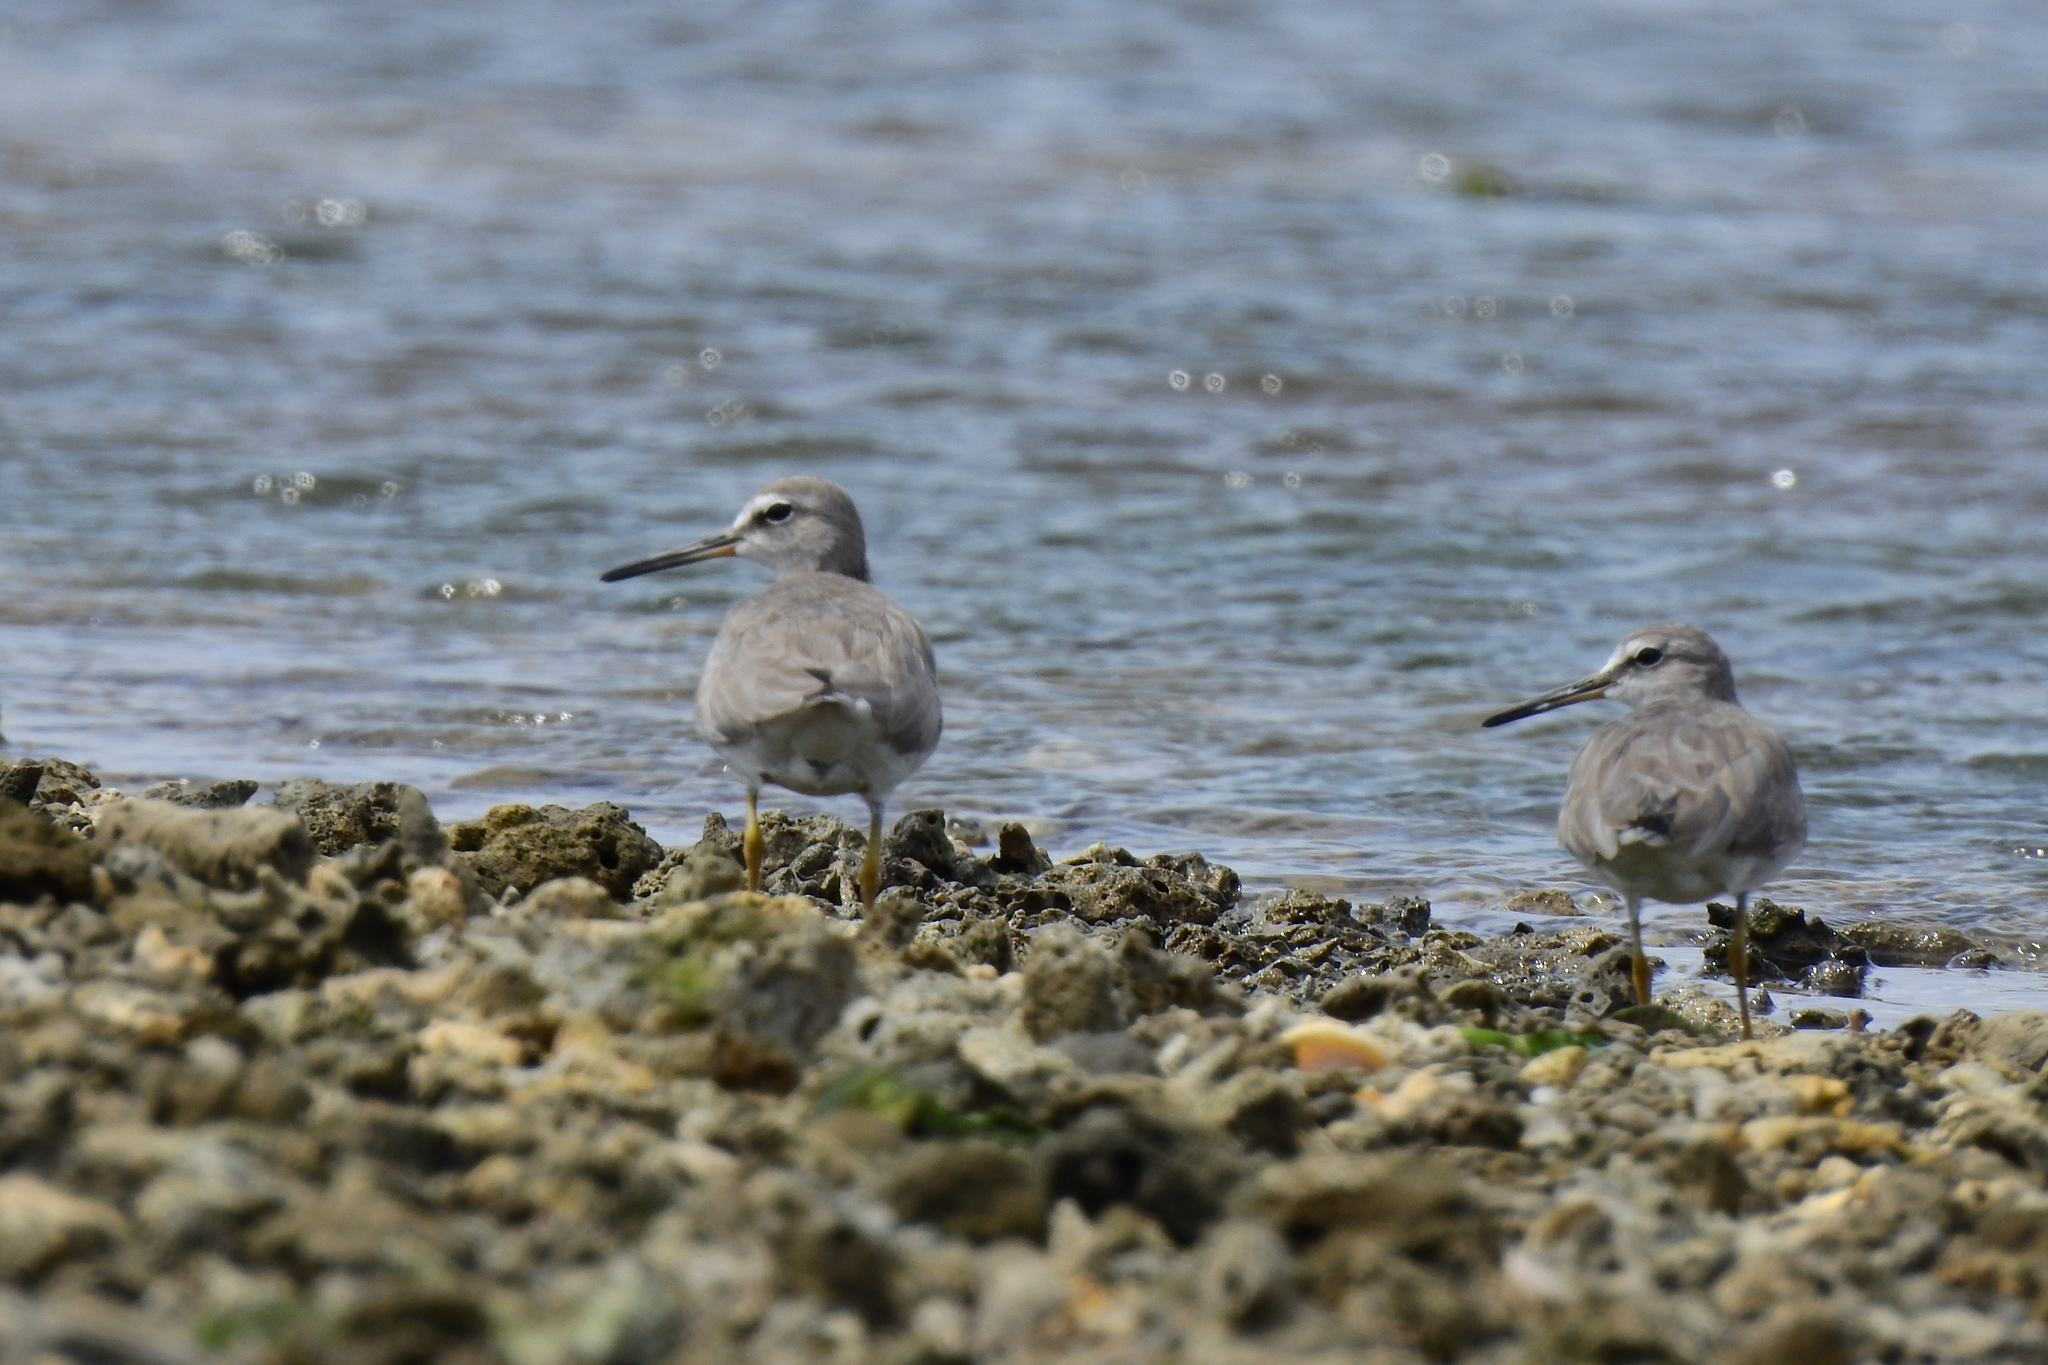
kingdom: Animalia
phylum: Chordata
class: Aves
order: Charadriiformes
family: Scolopacidae
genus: Tringa
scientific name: Tringa brevipes
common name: Grey-tailed tattler
